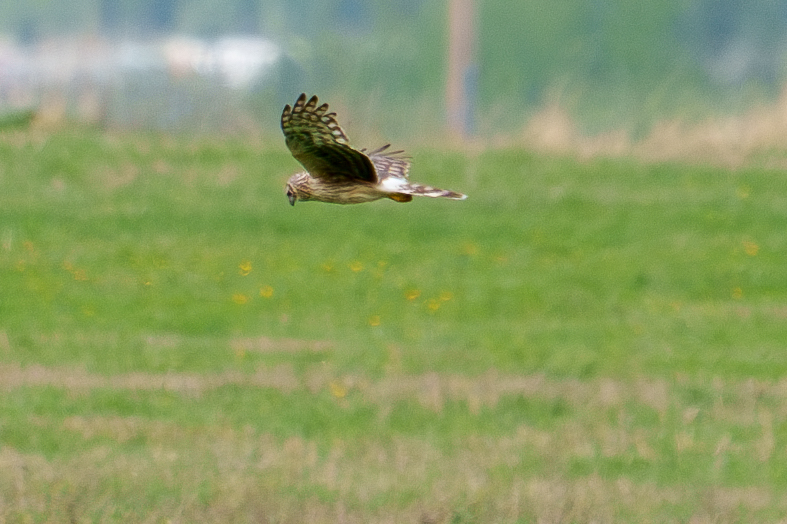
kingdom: Animalia
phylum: Chordata
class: Aves
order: Accipitriformes
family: Accipitridae
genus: Circus
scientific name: Circus cyaneus
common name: Hen harrier
